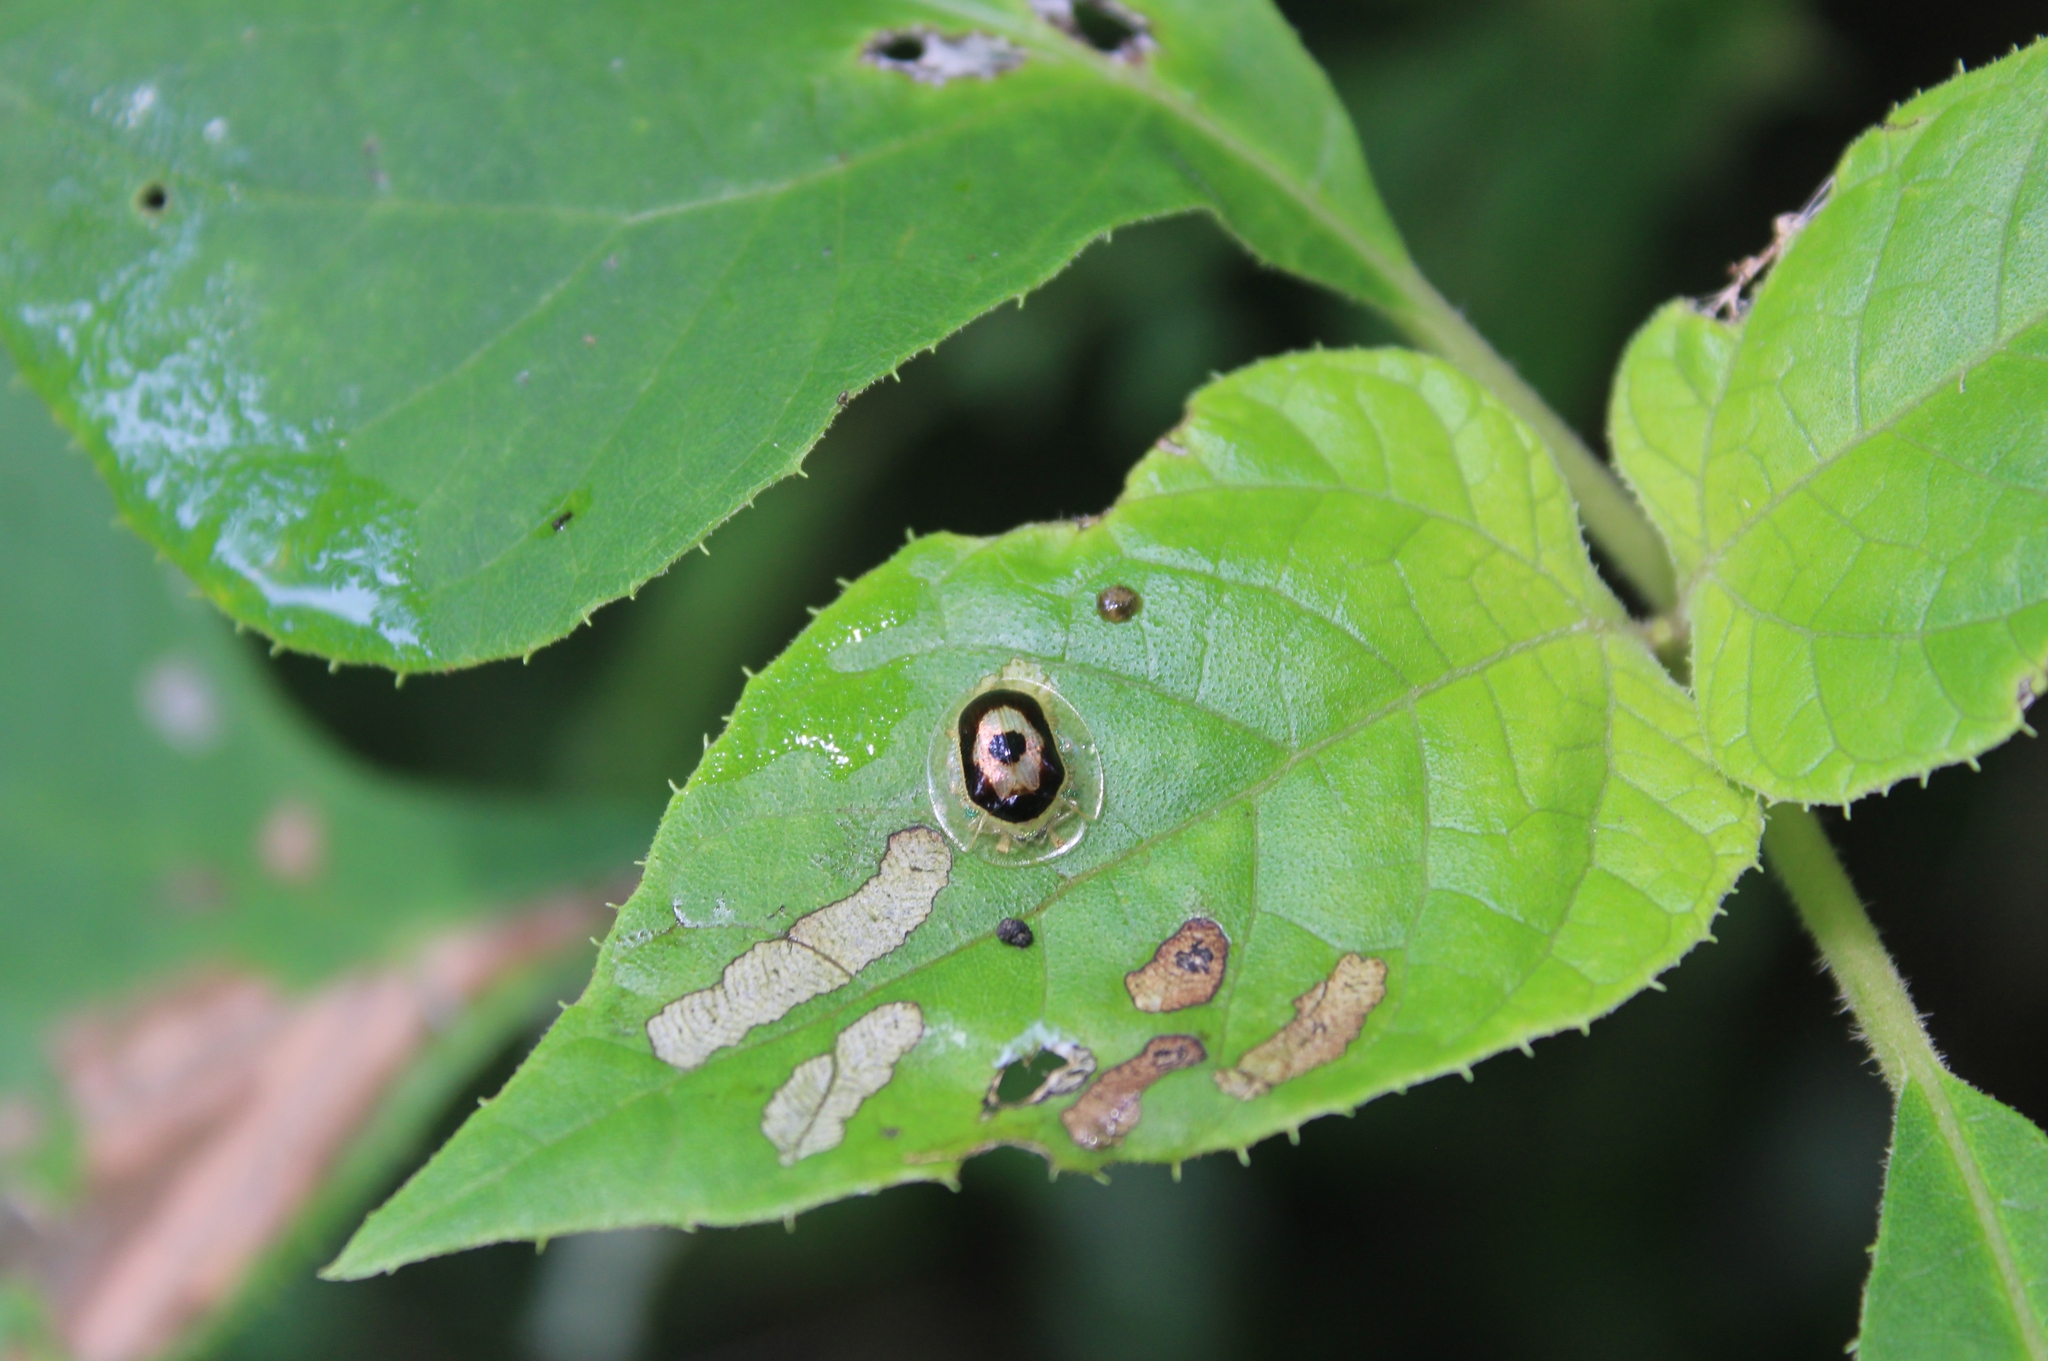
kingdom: Animalia
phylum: Arthropoda
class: Insecta
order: Coleoptera
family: Chrysomelidae
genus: Tapinaspis
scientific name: Tapinaspis wesmaeli
